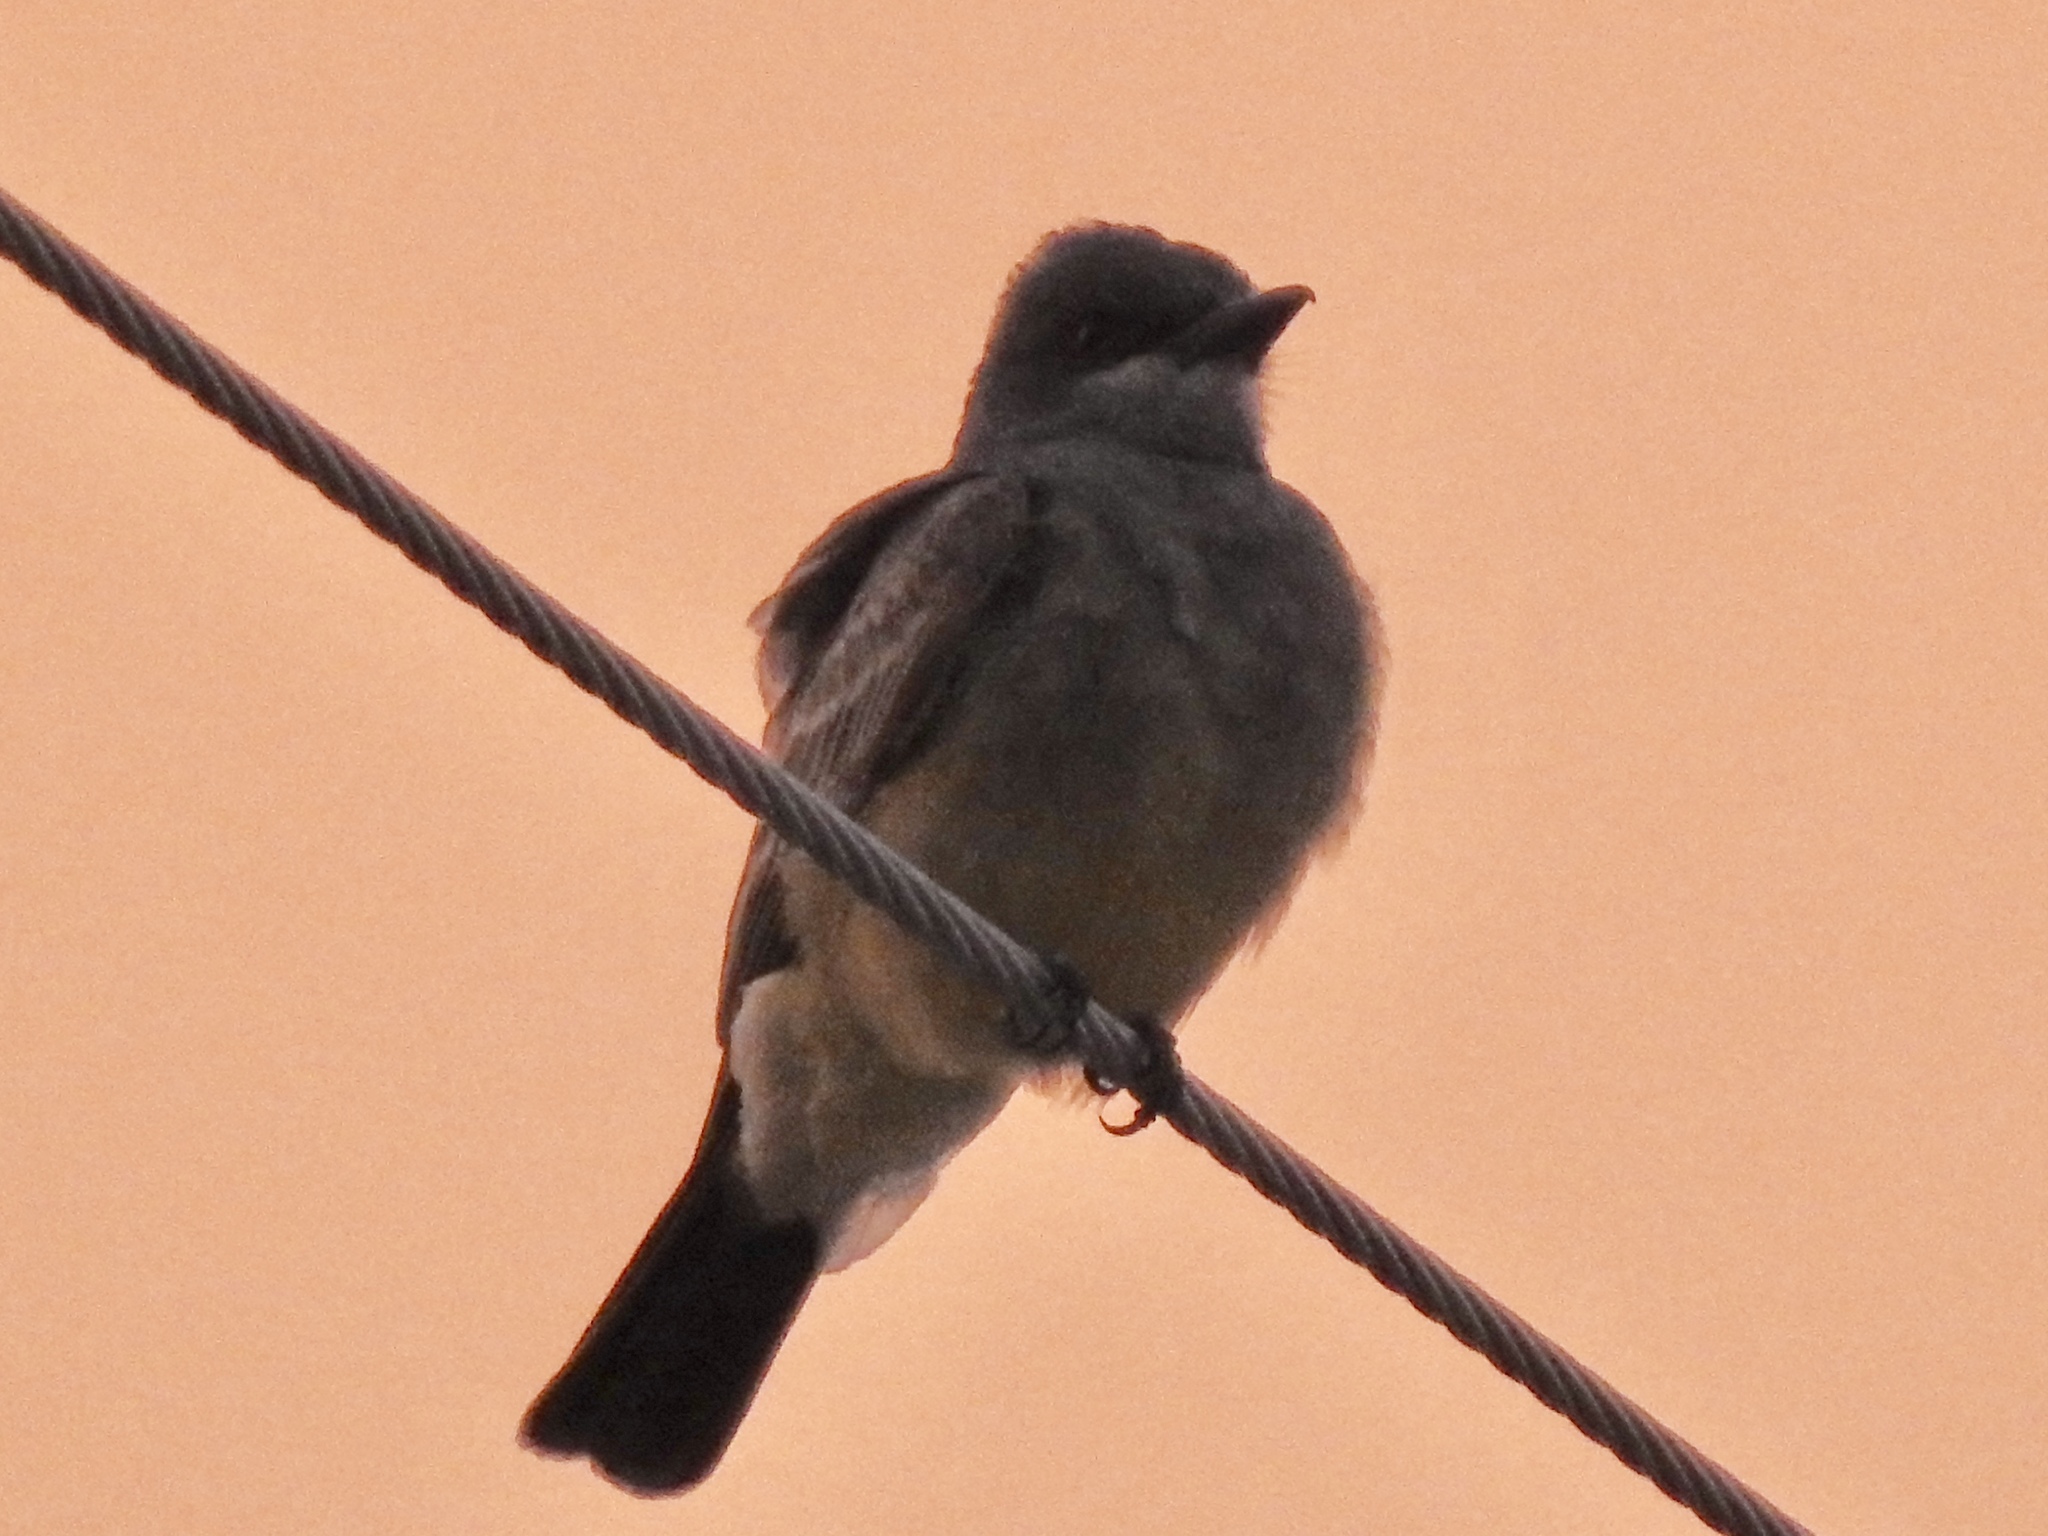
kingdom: Animalia
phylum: Chordata
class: Aves
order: Passeriformes
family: Tyrannidae
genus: Tyrannus
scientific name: Tyrannus vociferans
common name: Cassin's kingbird
